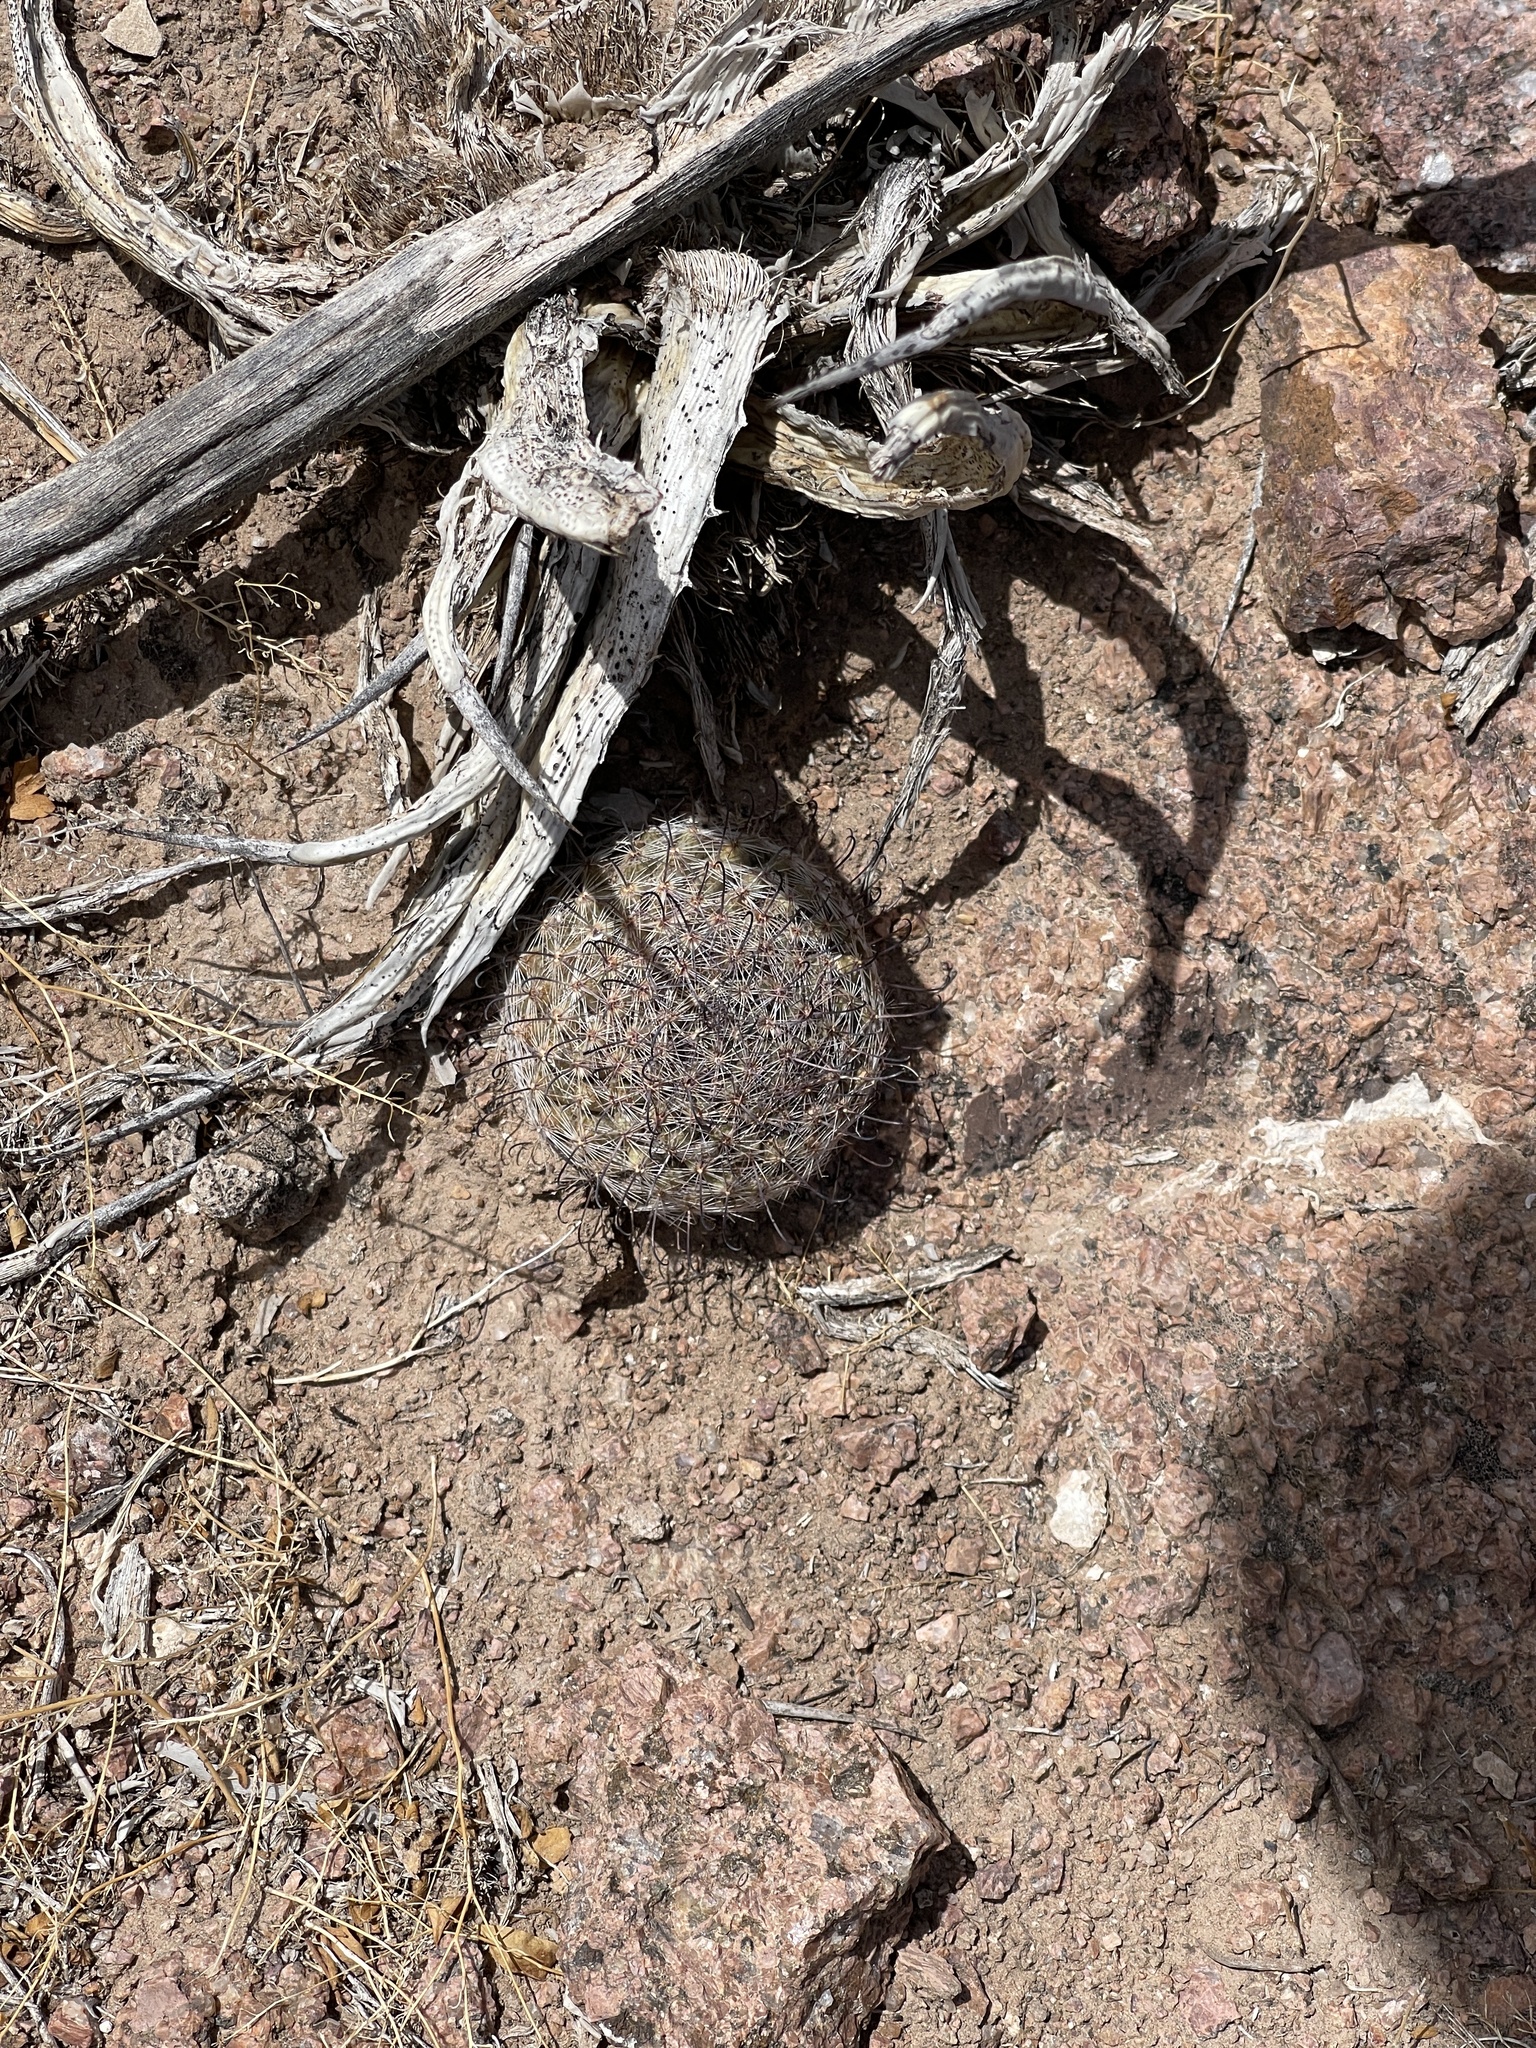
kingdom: Plantae
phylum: Tracheophyta
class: Magnoliopsida
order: Caryophyllales
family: Cactaceae
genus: Cochemiea
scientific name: Cochemiea grahamii
